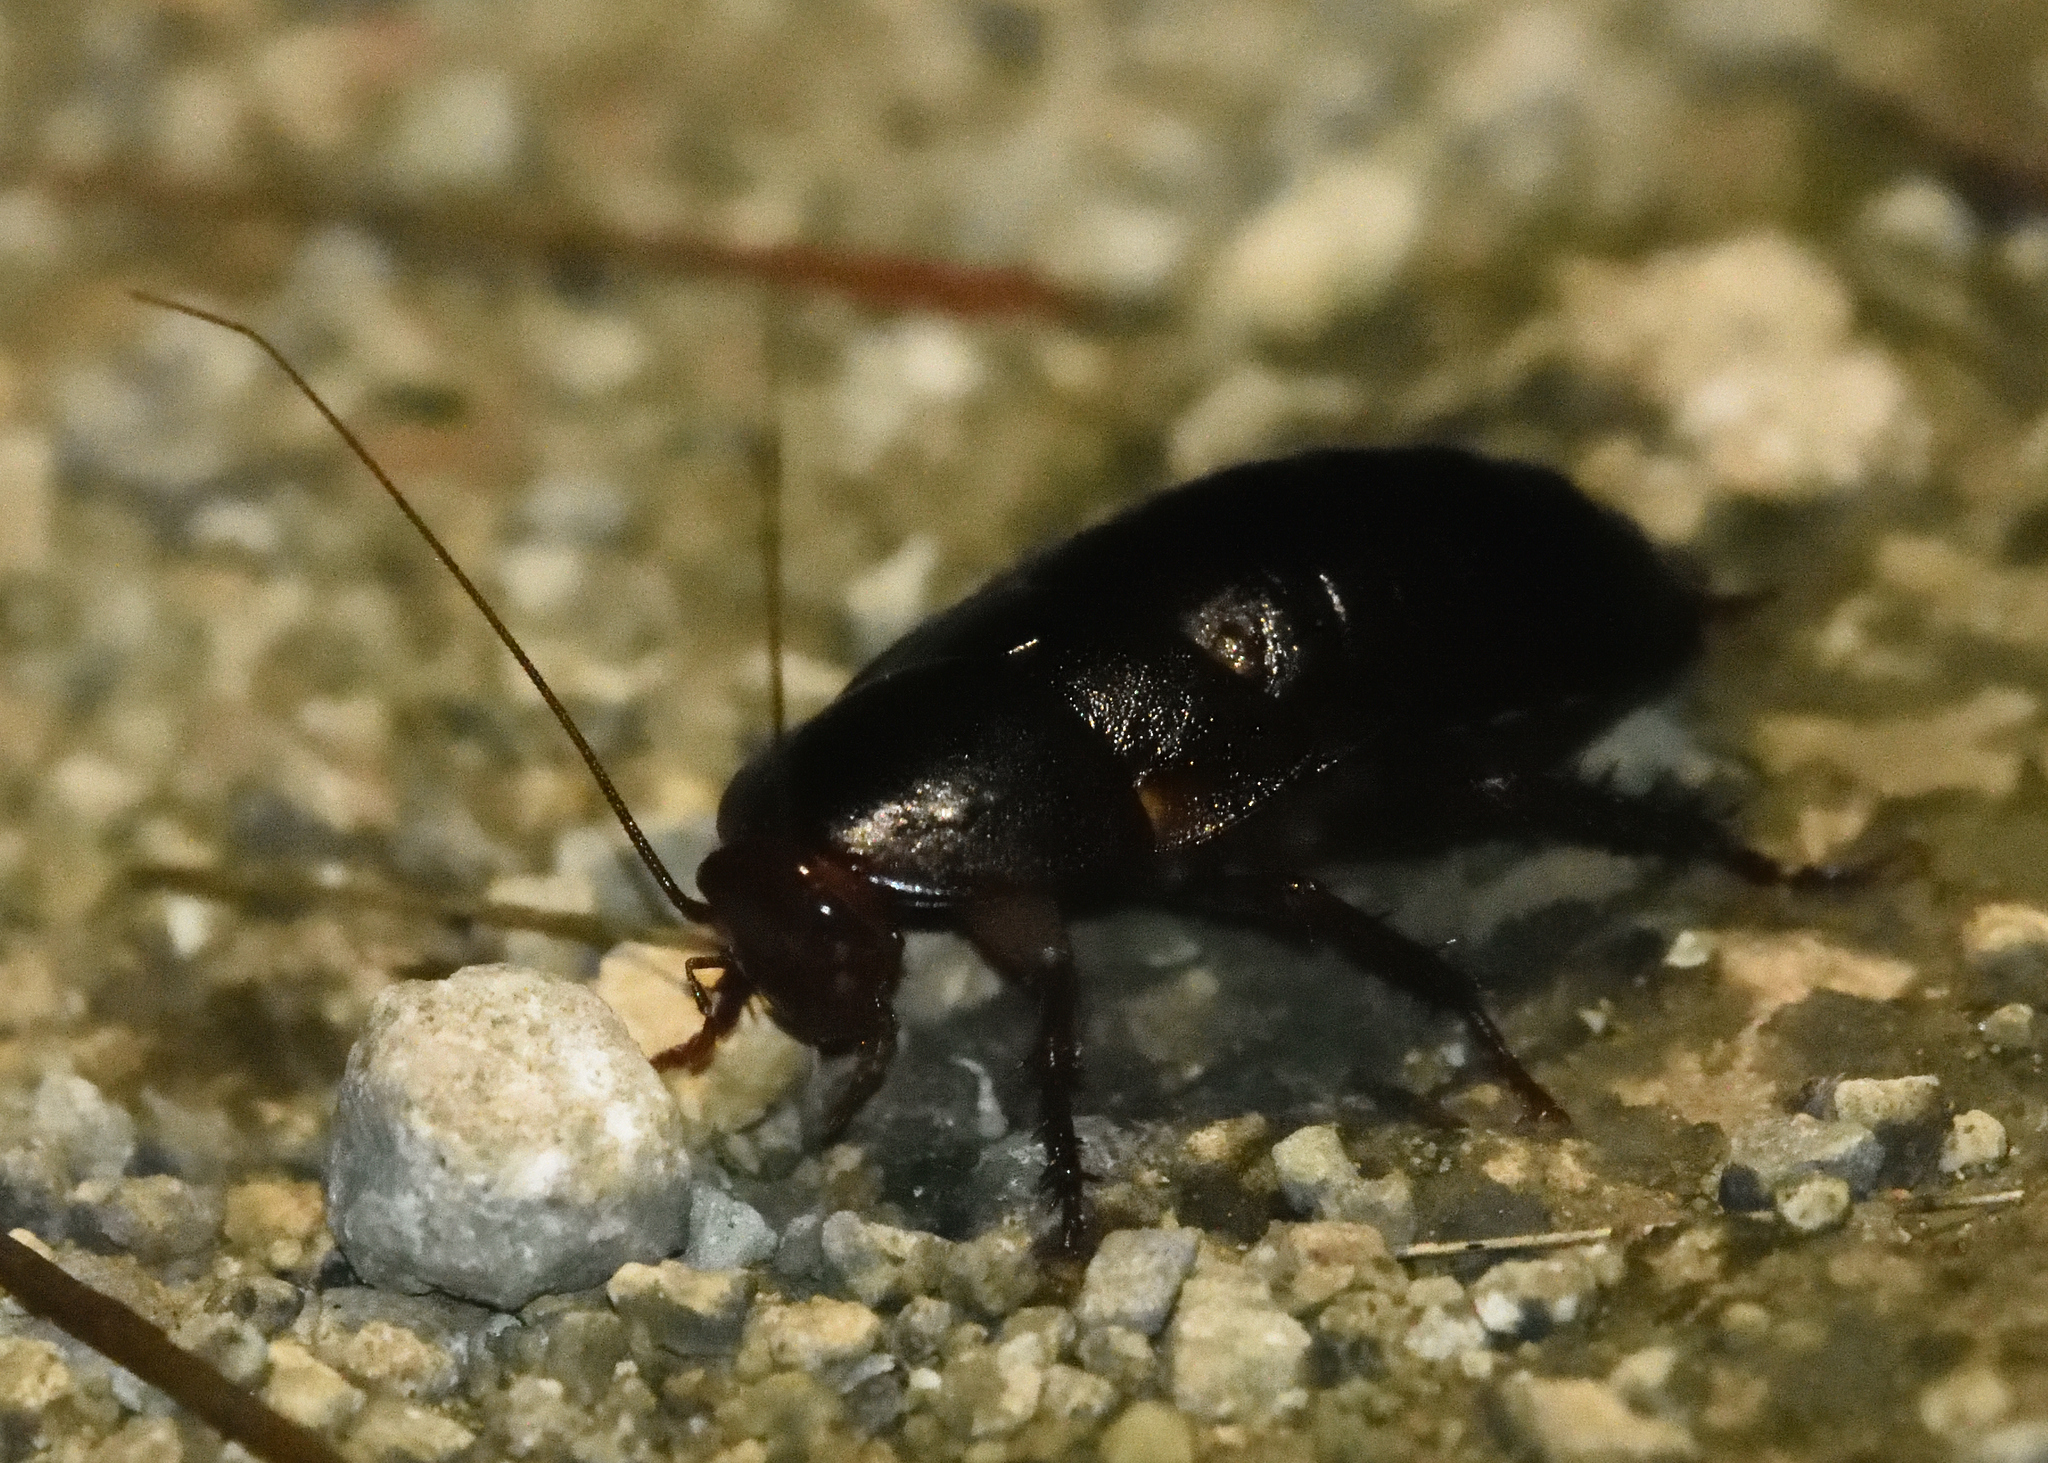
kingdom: Animalia
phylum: Arthropoda
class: Insecta
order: Blattodea
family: Blattidae
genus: Eurycotis
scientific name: Eurycotis floridana
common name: Florida cockroach
